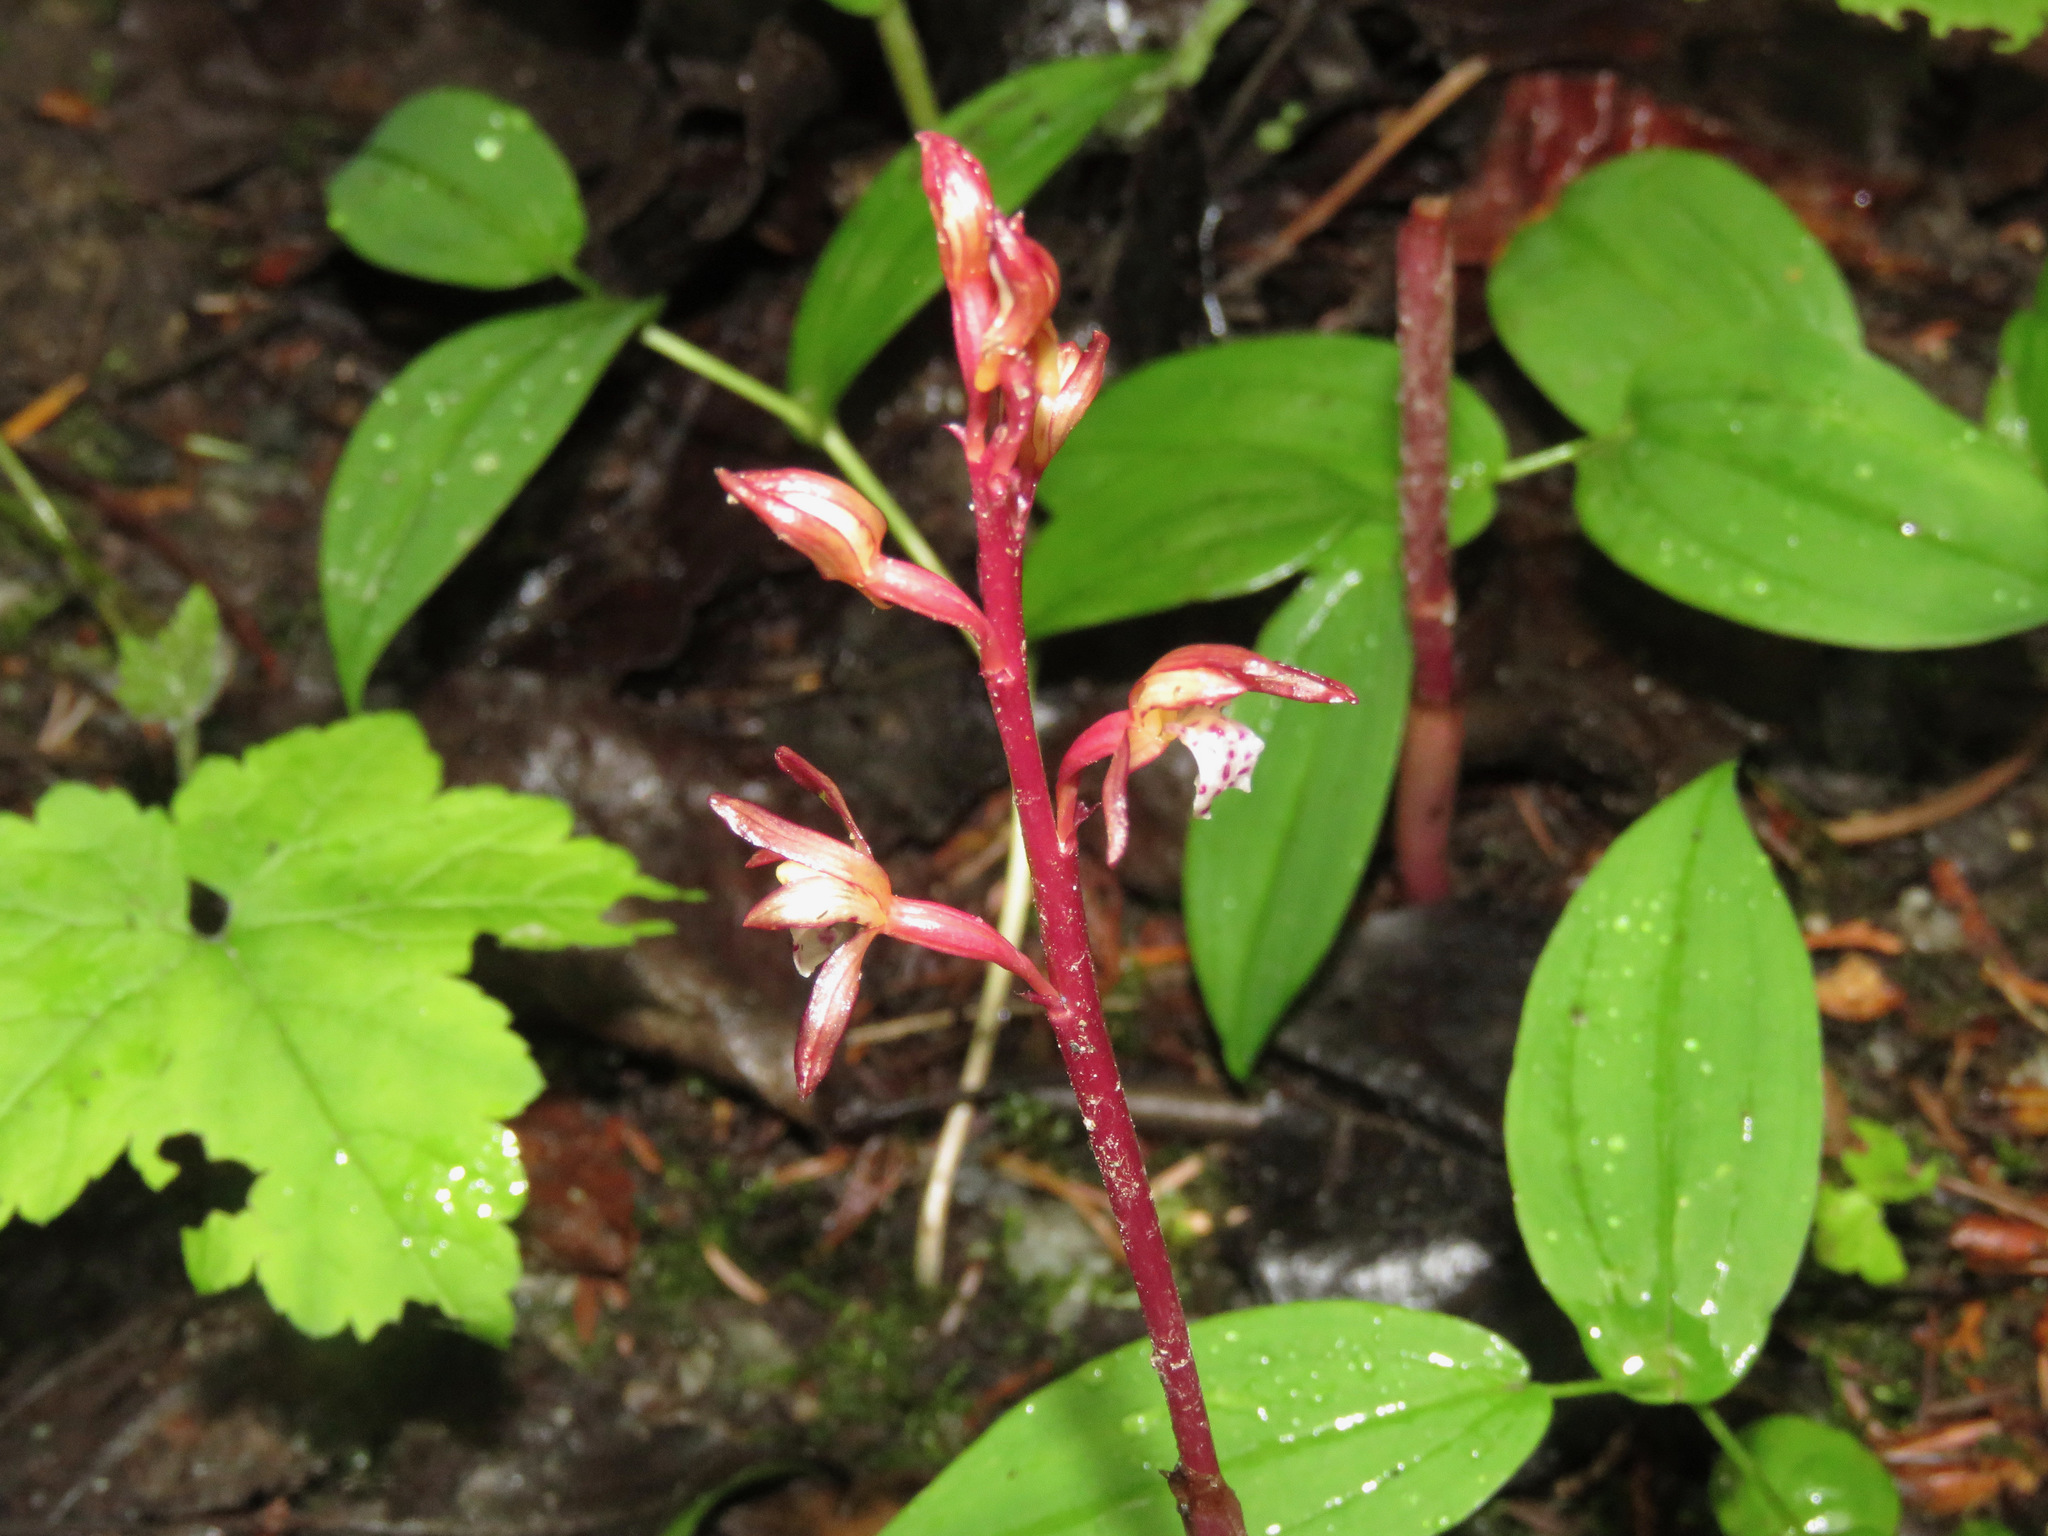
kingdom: Plantae
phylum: Tracheophyta
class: Liliopsida
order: Asparagales
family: Orchidaceae
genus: Corallorhiza
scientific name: Corallorhiza maculata
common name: Spotted coralroot
